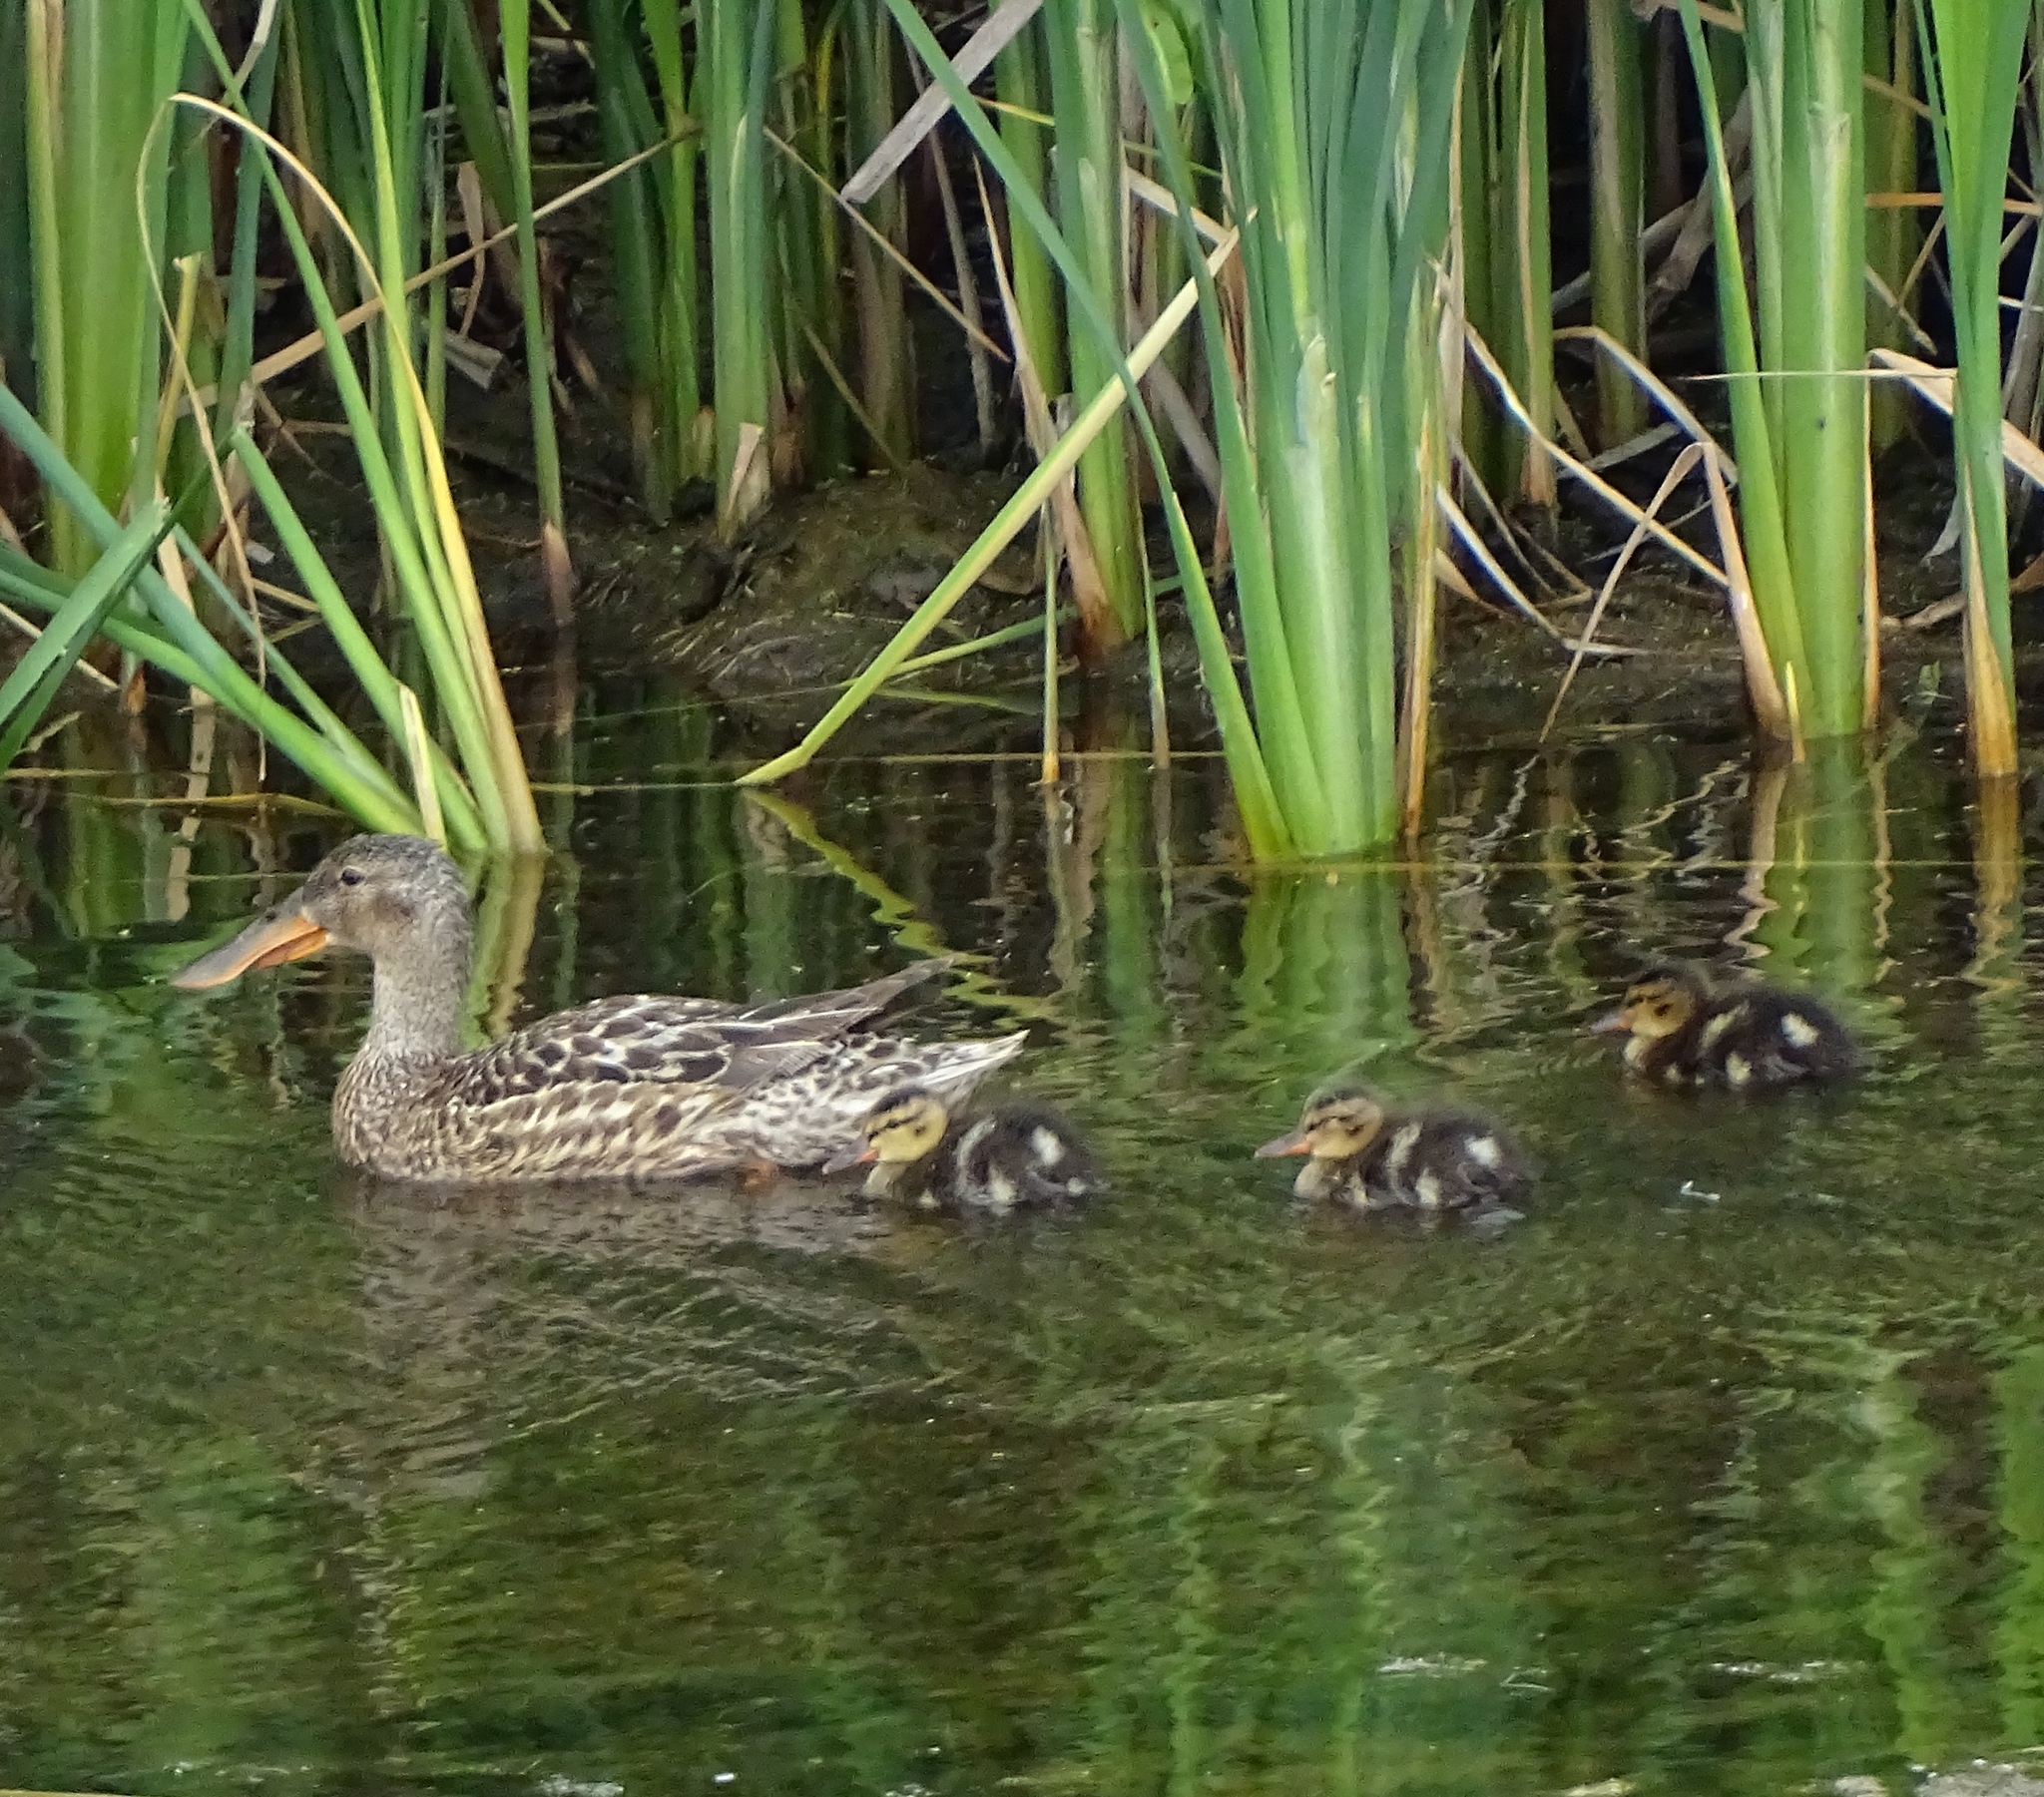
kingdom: Animalia
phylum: Chordata
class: Aves
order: Anseriformes
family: Anatidae
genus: Spatula
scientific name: Spatula clypeata
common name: Northern shoveler
